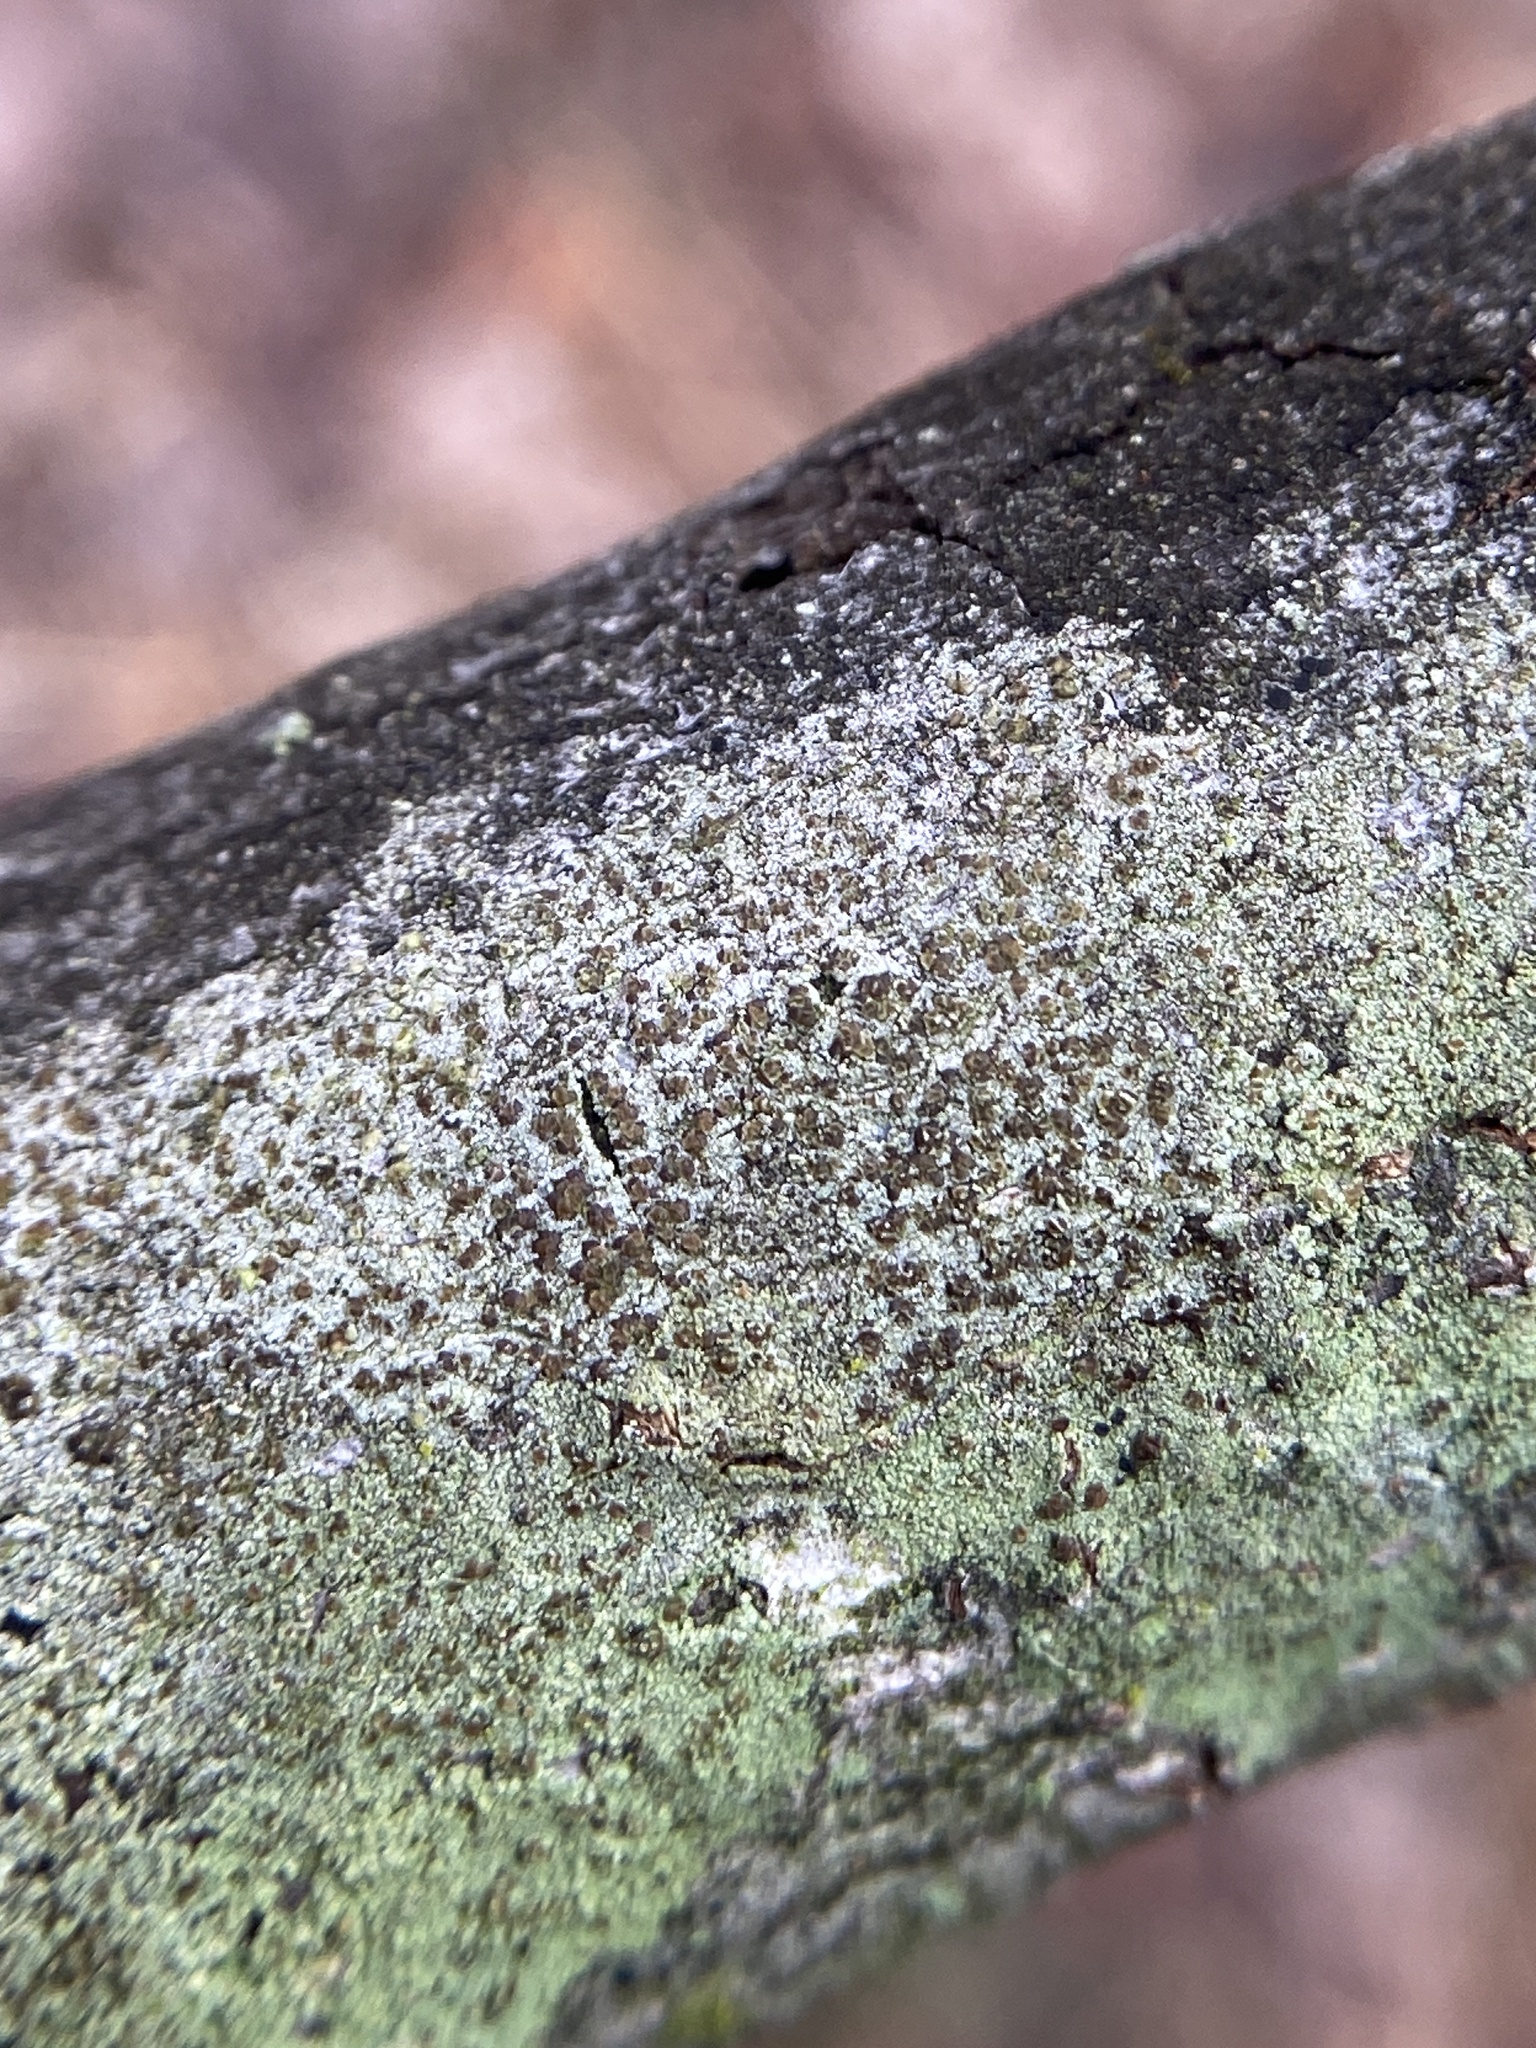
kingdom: Fungi
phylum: Ascomycota
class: Lecanoromycetes
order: Lecanorales
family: Lecanoraceae
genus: Traponora
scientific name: Traponora varians
